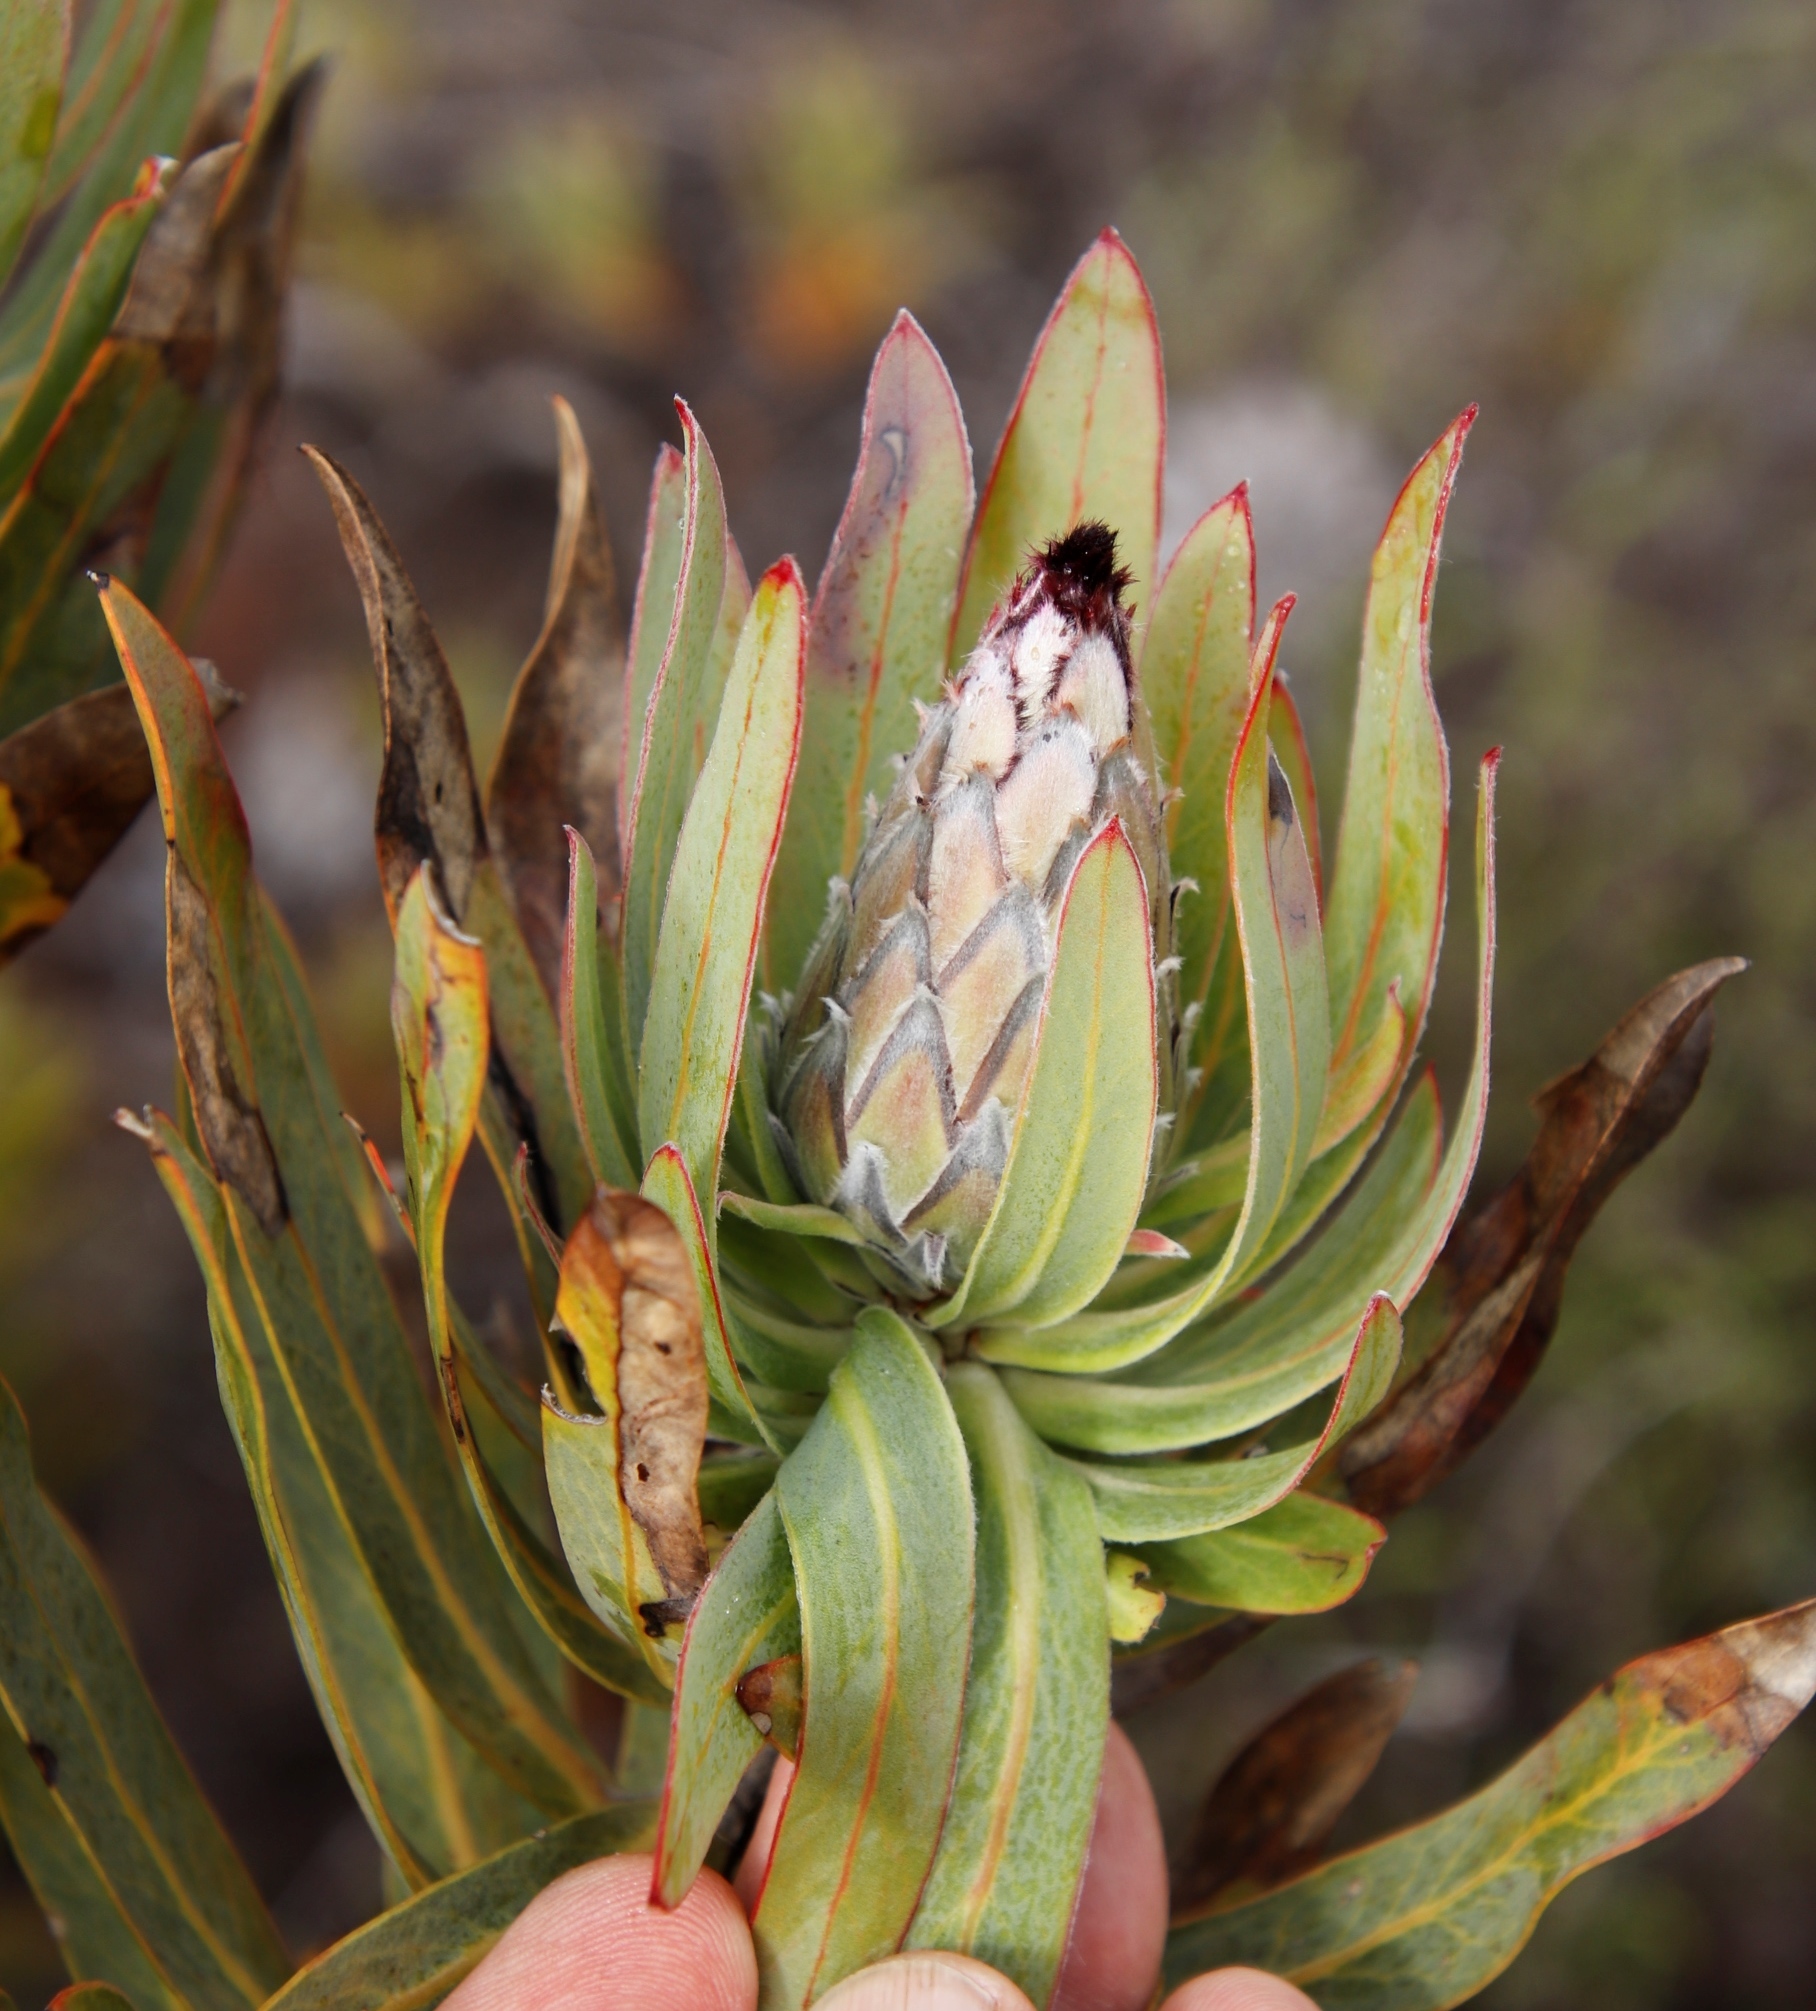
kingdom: Plantae
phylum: Tracheophyta
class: Magnoliopsida
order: Proteales
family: Proteaceae
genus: Protea
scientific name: Protea laurifolia
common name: Grey-leaf sugarbsh
